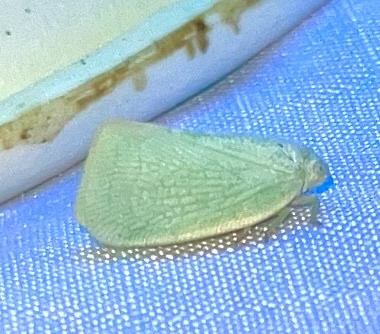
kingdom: Animalia
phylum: Arthropoda
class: Insecta
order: Hemiptera
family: Flatidae
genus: Flatormenis
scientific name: Flatormenis proxima
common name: Northern flatid planthopper
